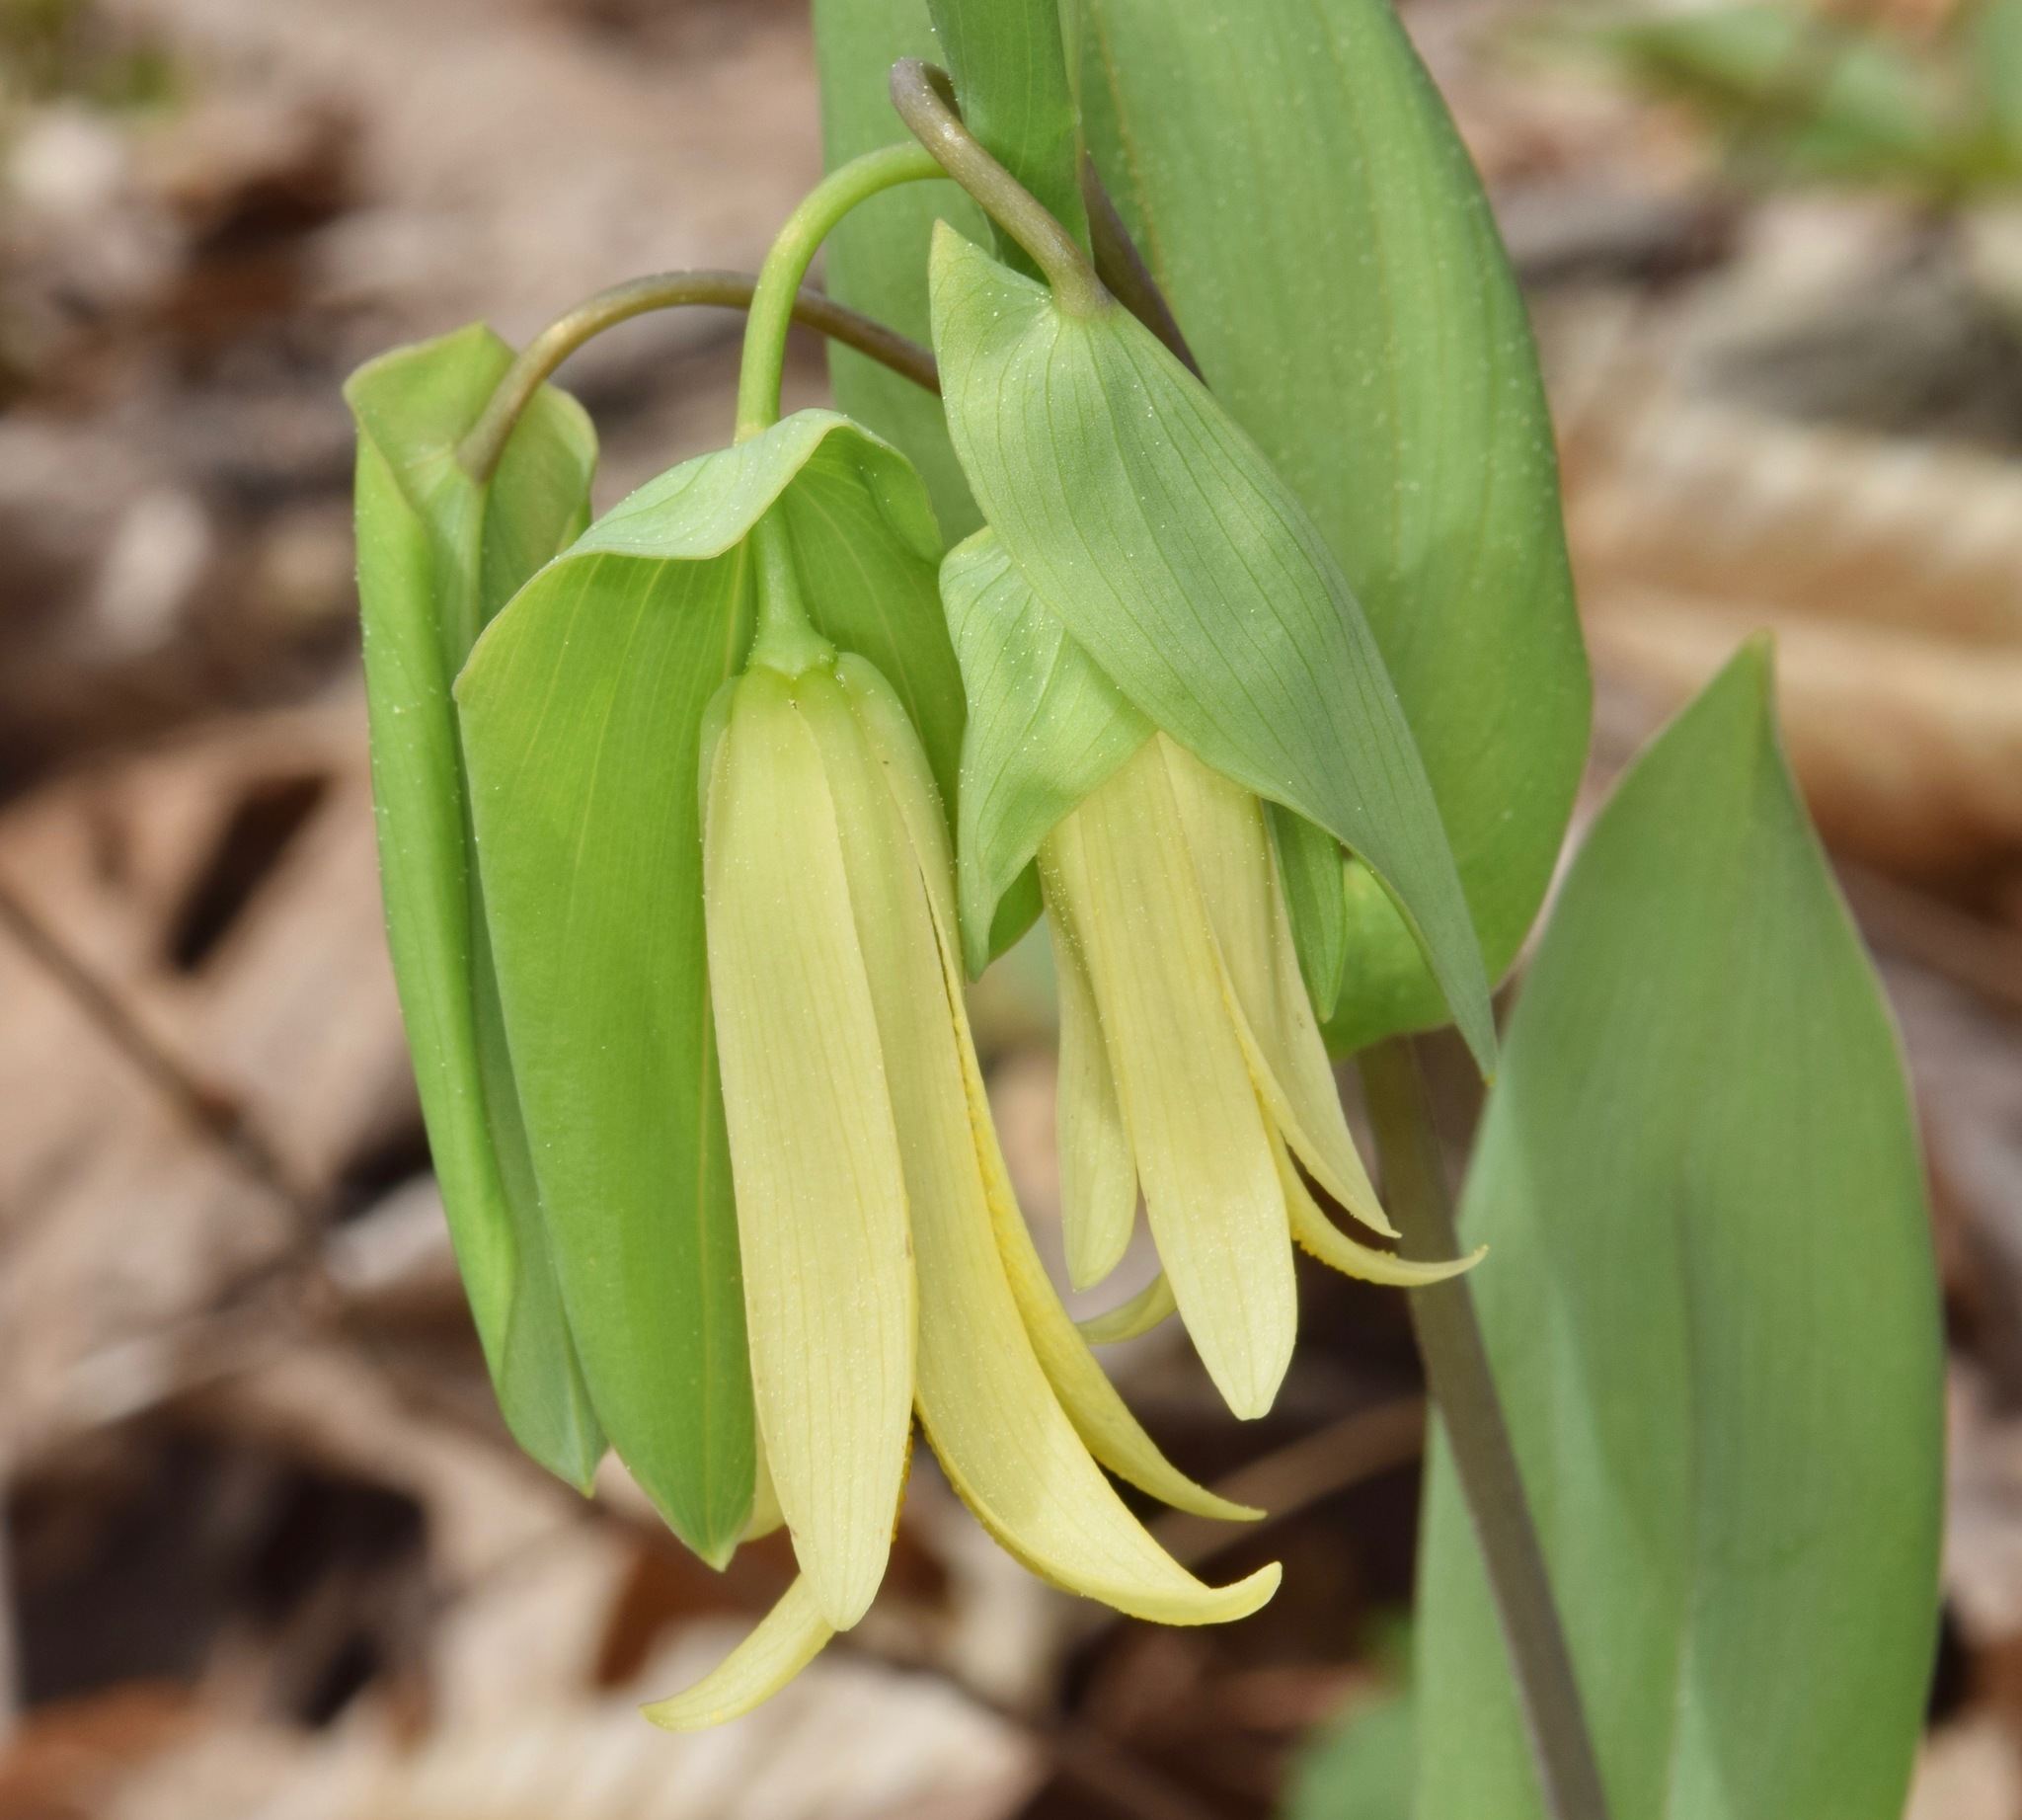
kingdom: Plantae
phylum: Tracheophyta
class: Liliopsida
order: Liliales
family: Colchicaceae
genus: Uvularia
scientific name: Uvularia perfoliata
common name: Perfoliate bellwort
